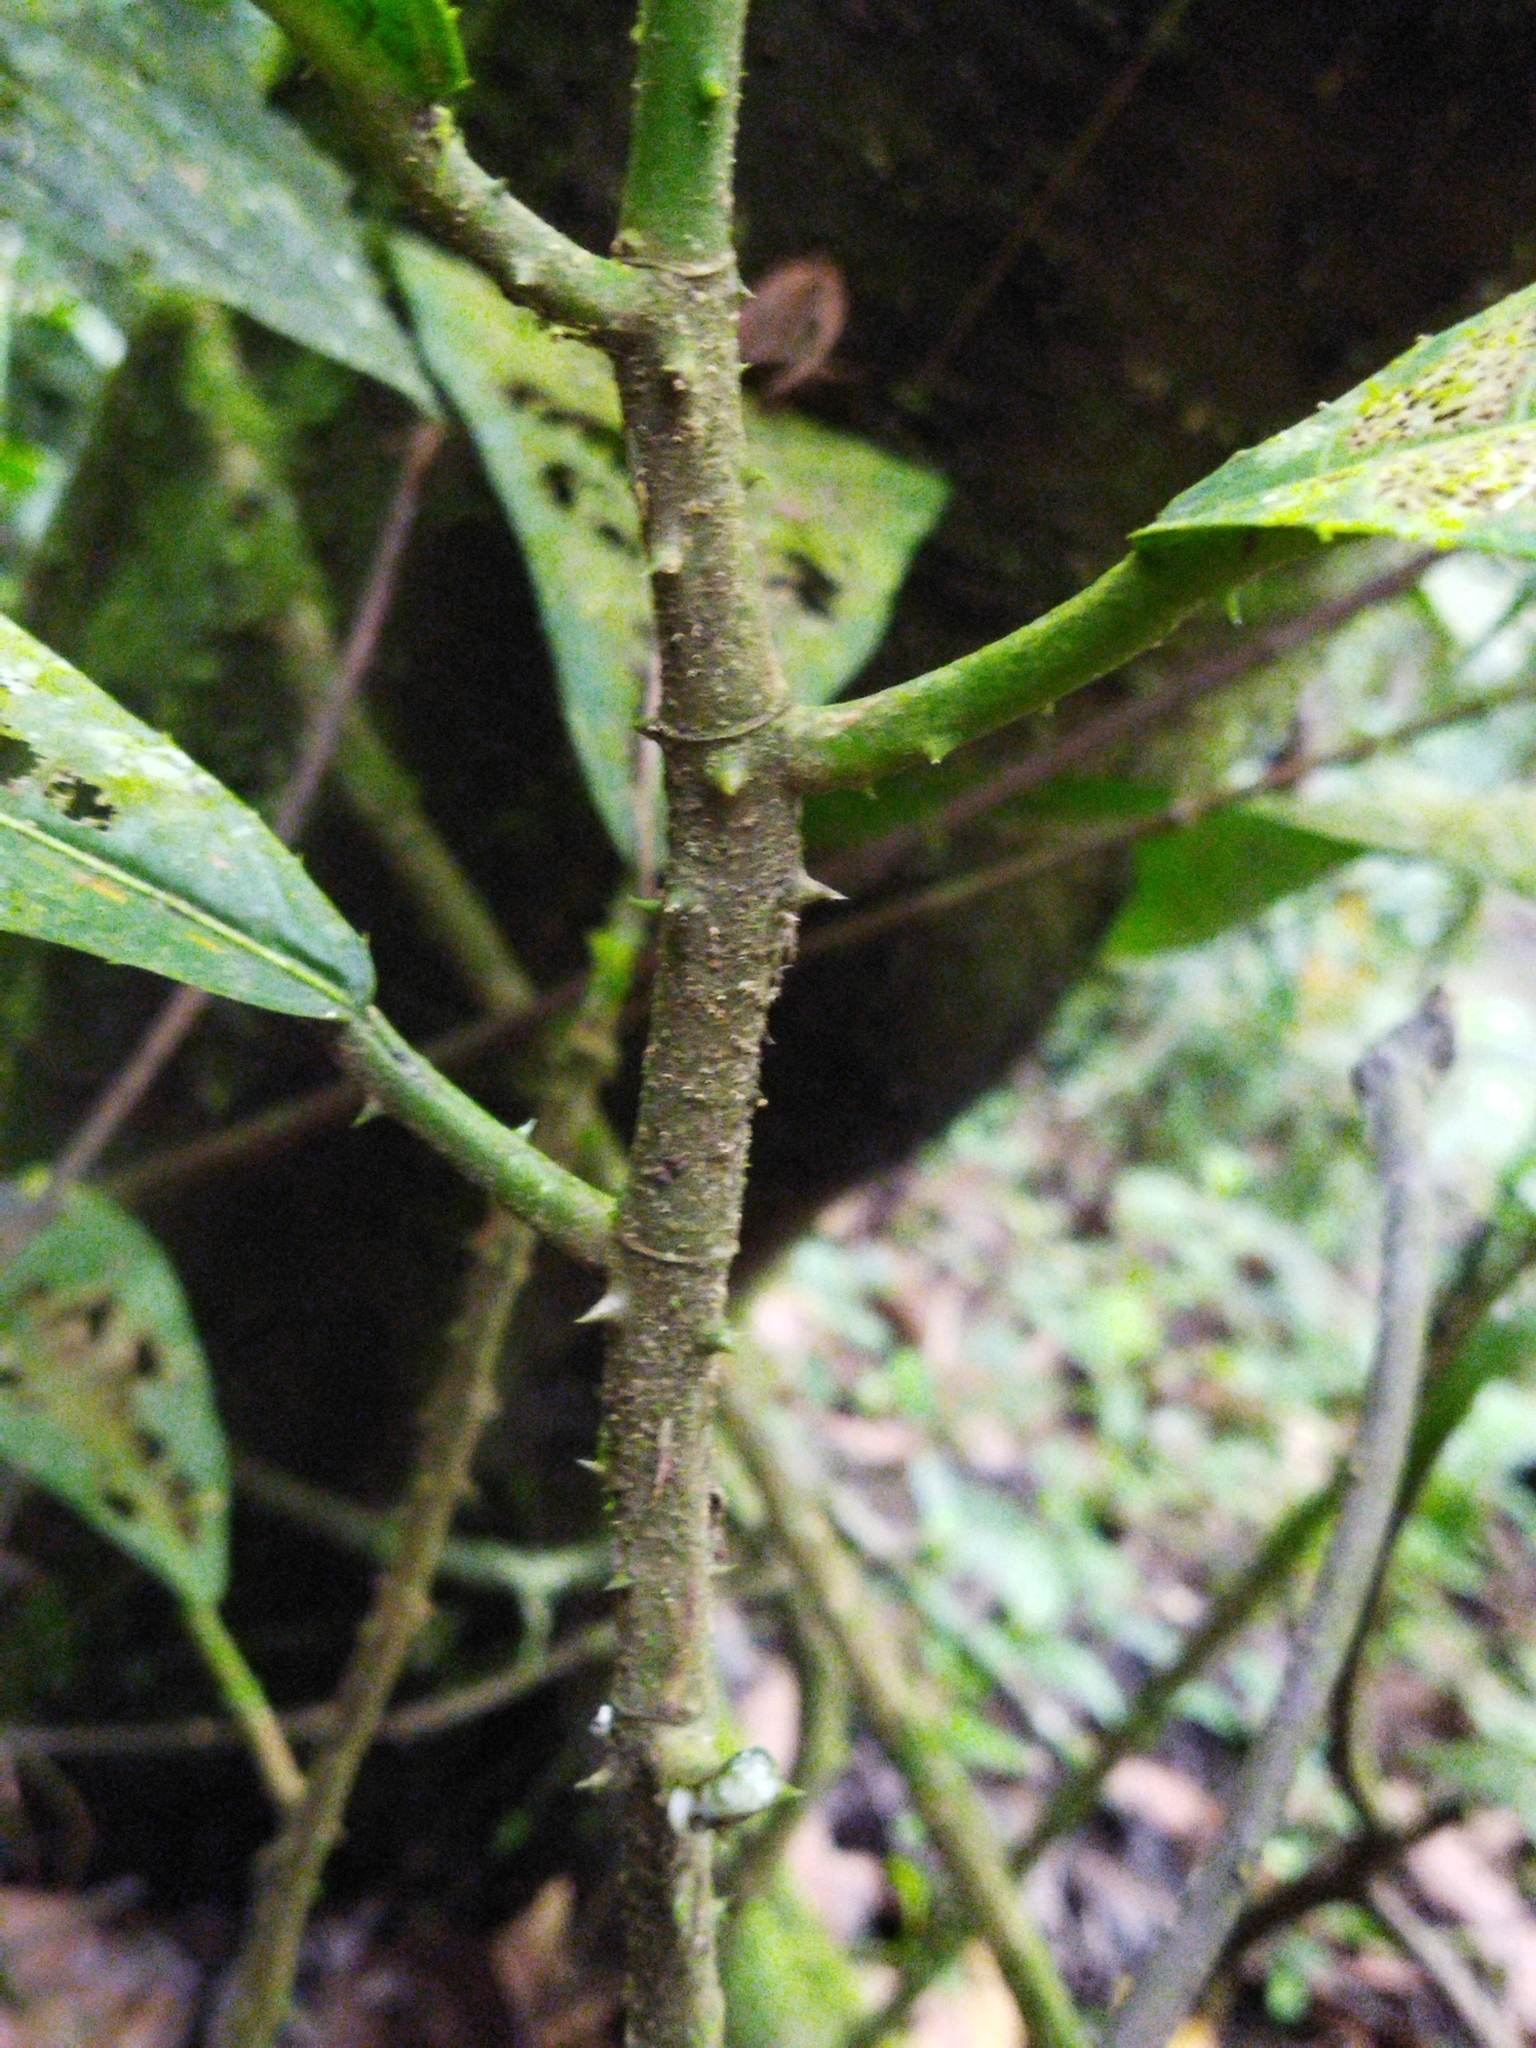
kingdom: Plantae
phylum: Tracheophyta
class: Magnoliopsida
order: Rosales
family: Moraceae
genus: Poulsenia
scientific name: Poulsenia armata
